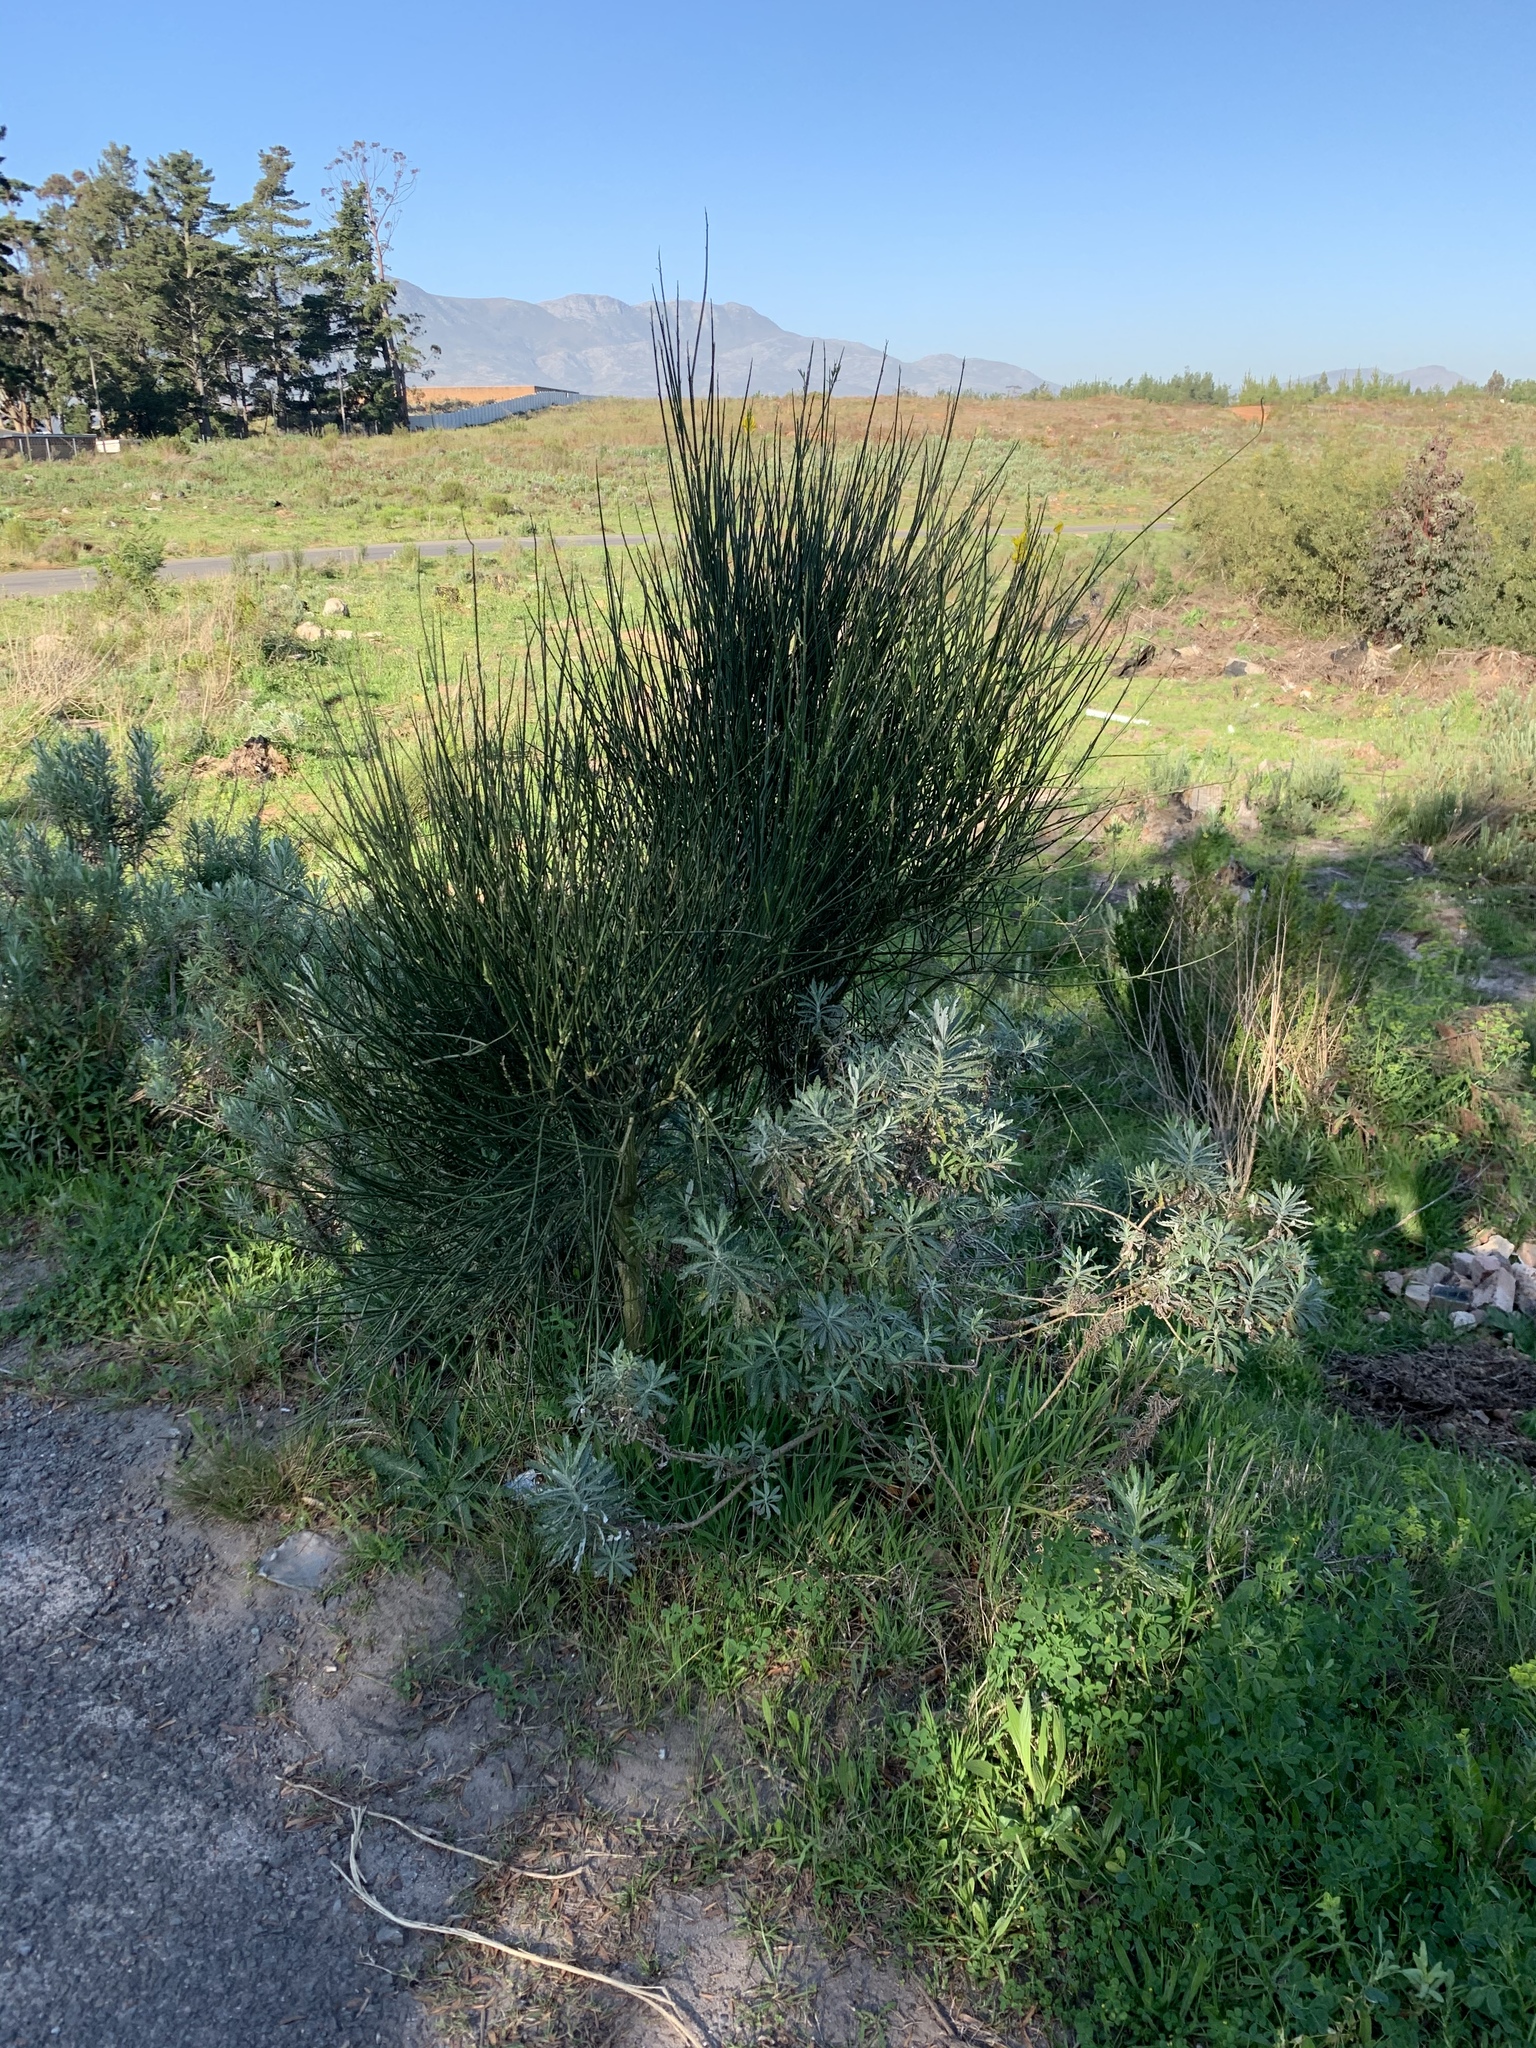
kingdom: Plantae
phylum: Tracheophyta
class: Magnoliopsida
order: Fabales
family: Fabaceae
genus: Spartium
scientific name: Spartium junceum
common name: Spanish broom
